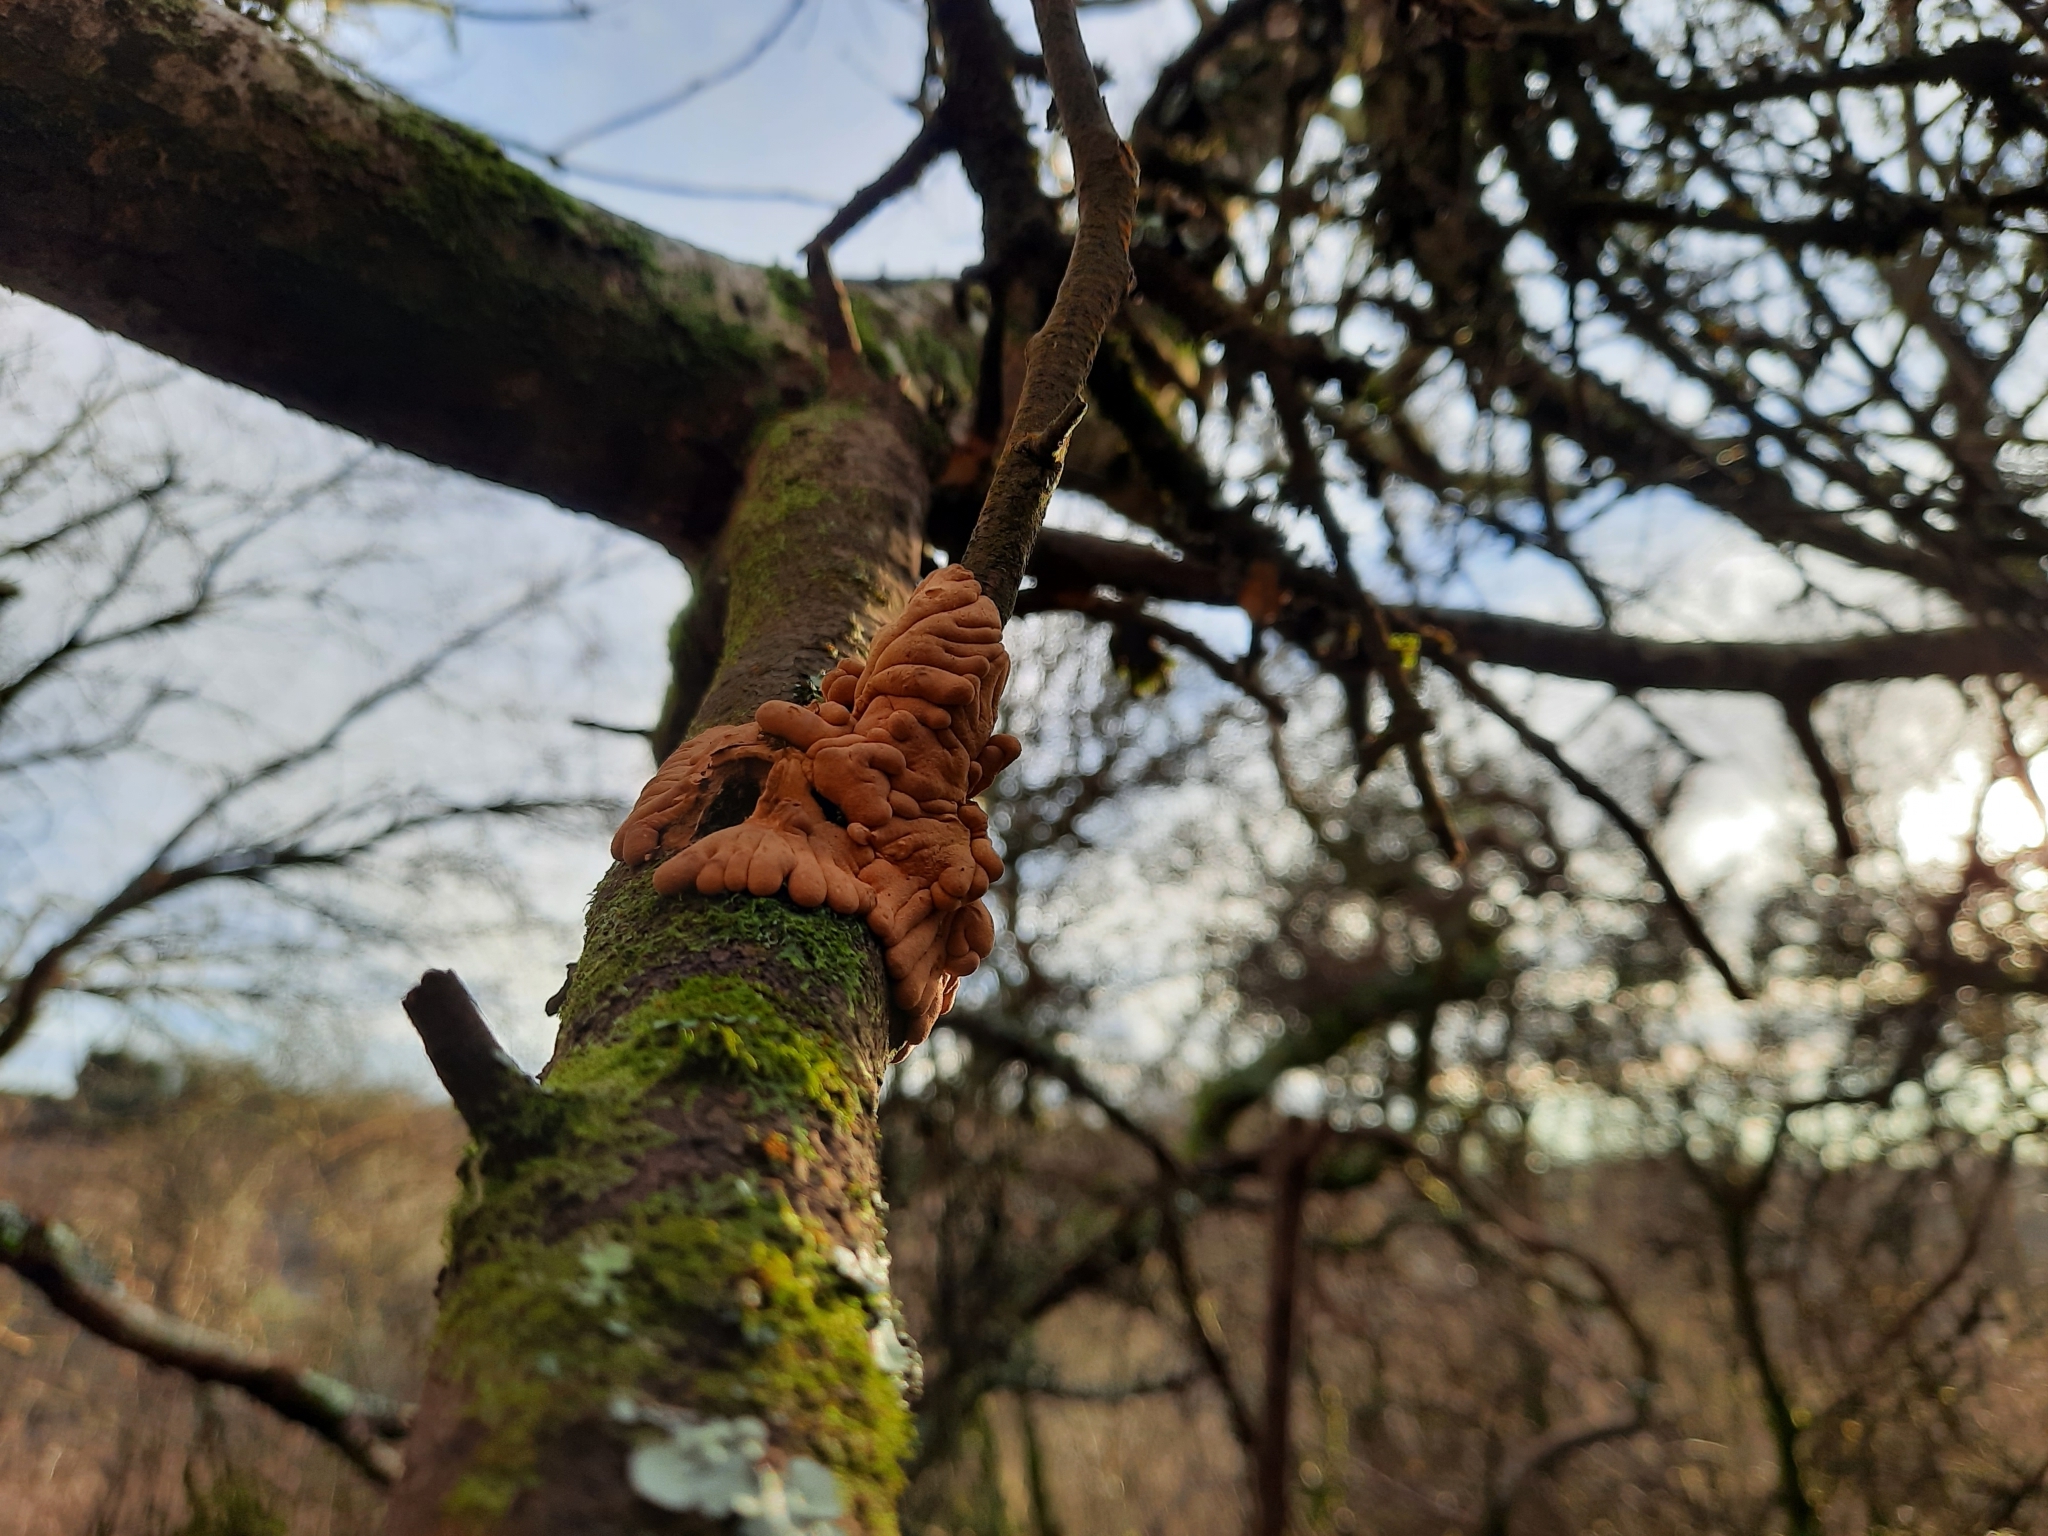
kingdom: Fungi
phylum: Ascomycota
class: Sordariomycetes
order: Hypocreales
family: Hypocreaceae
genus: Hypocreopsis
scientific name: Hypocreopsis rhododendri
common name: Hazel gloves
